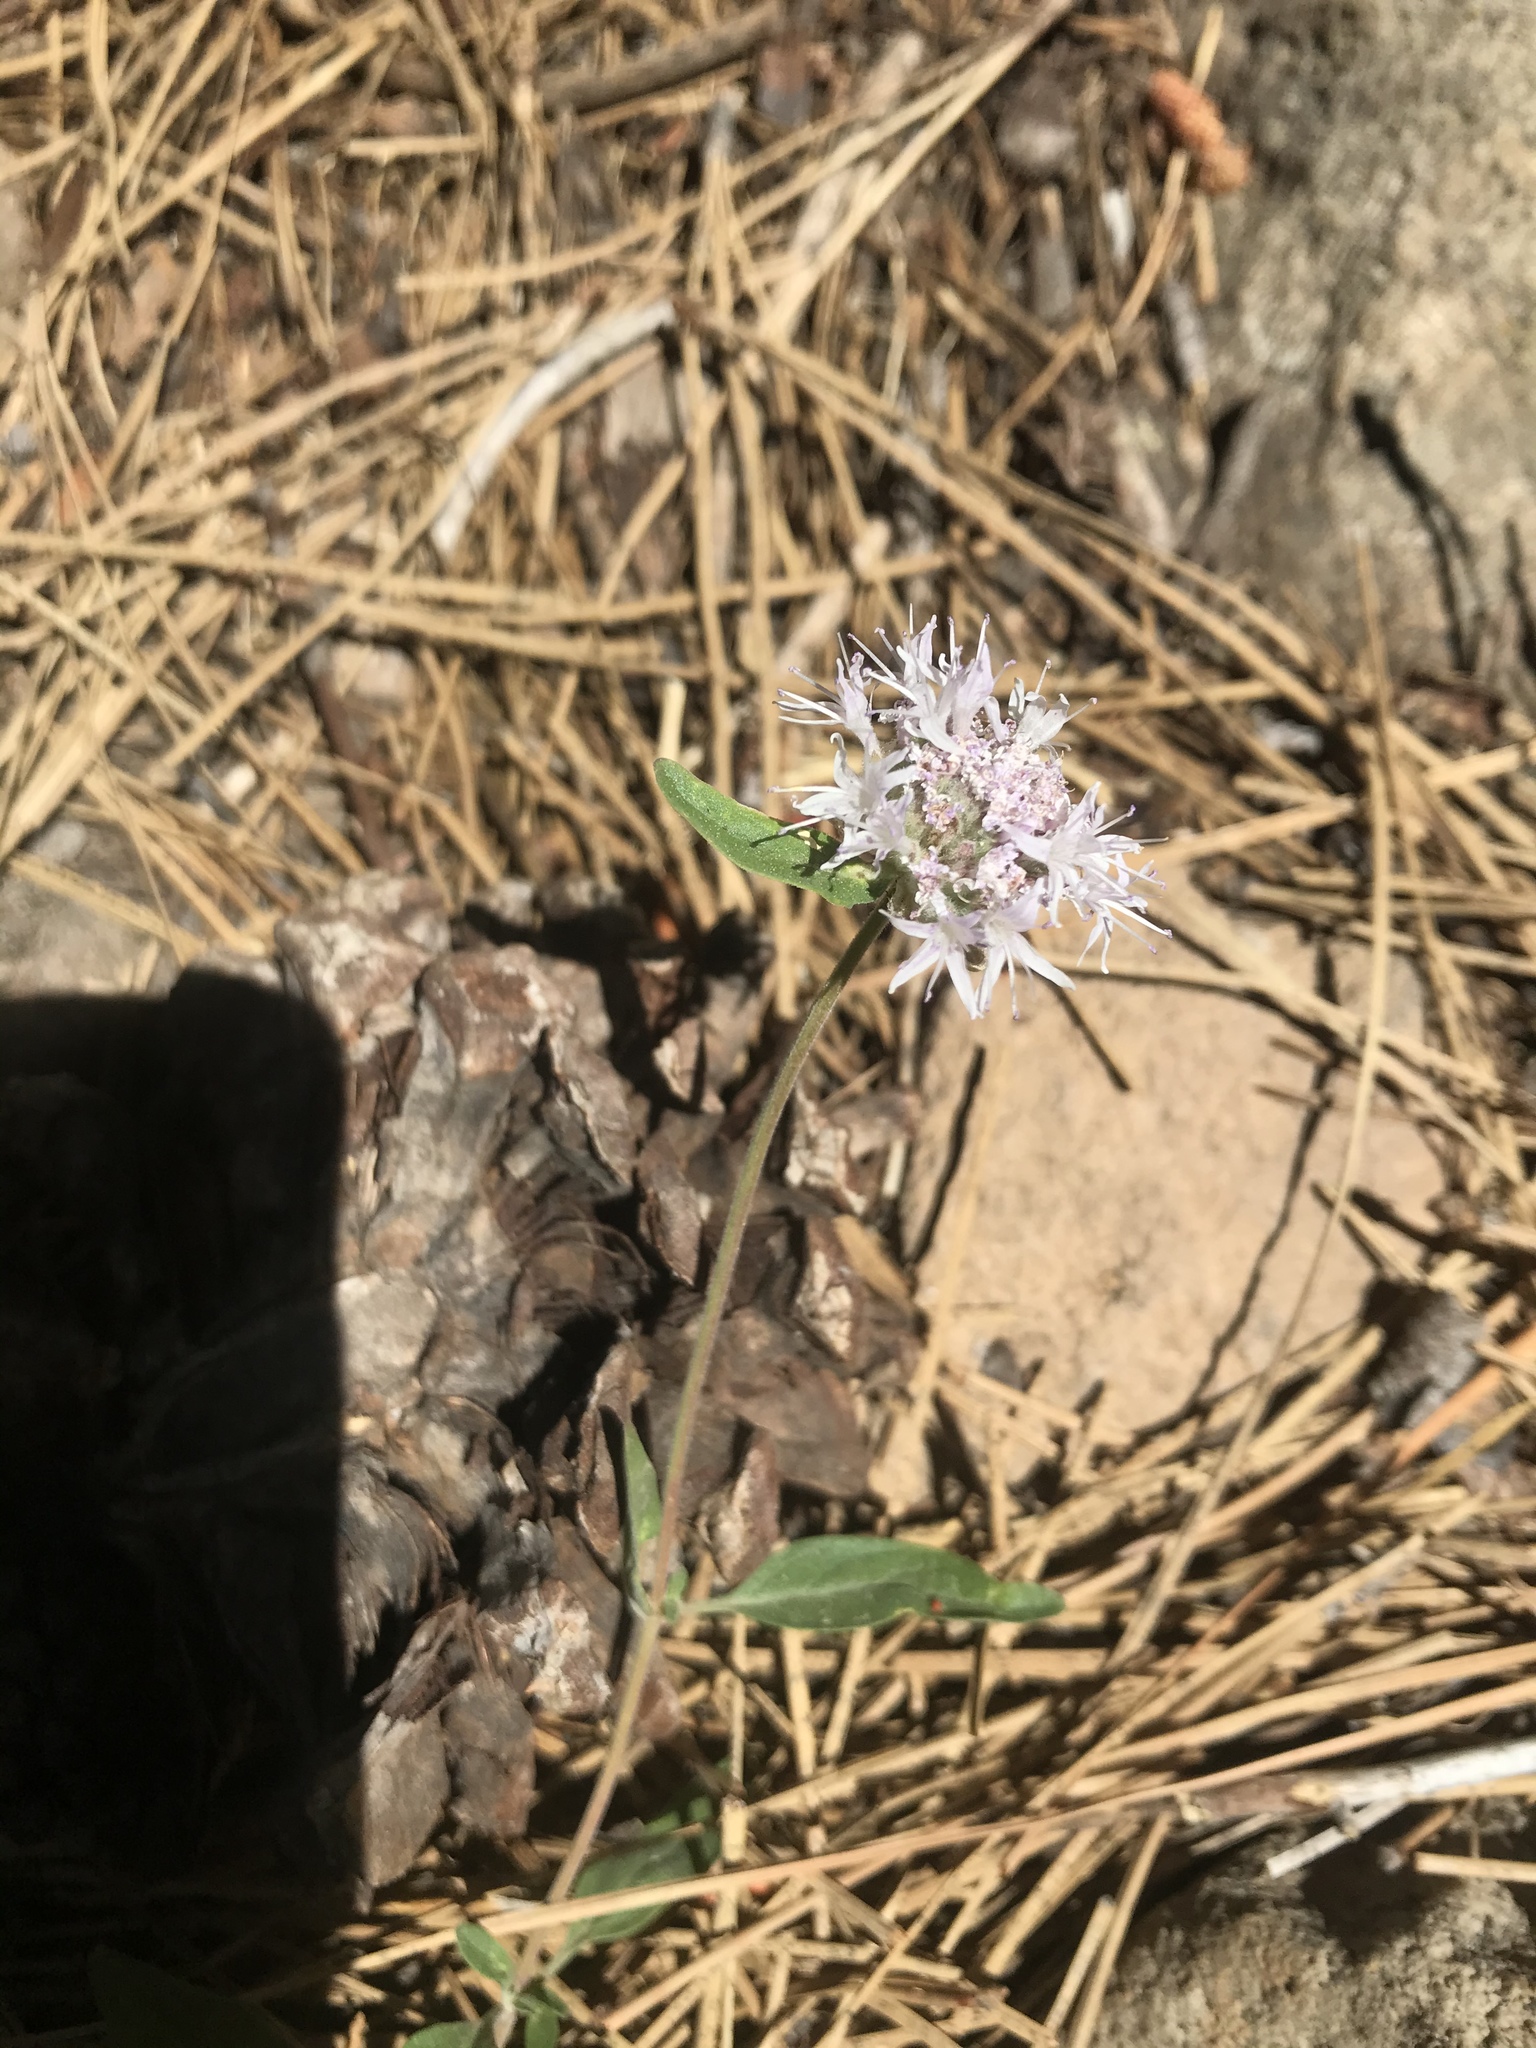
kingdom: Plantae
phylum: Tracheophyta
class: Magnoliopsida
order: Lamiales
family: Lamiaceae
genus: Monardella
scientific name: Monardella odoratissima
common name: Pacific monardella
